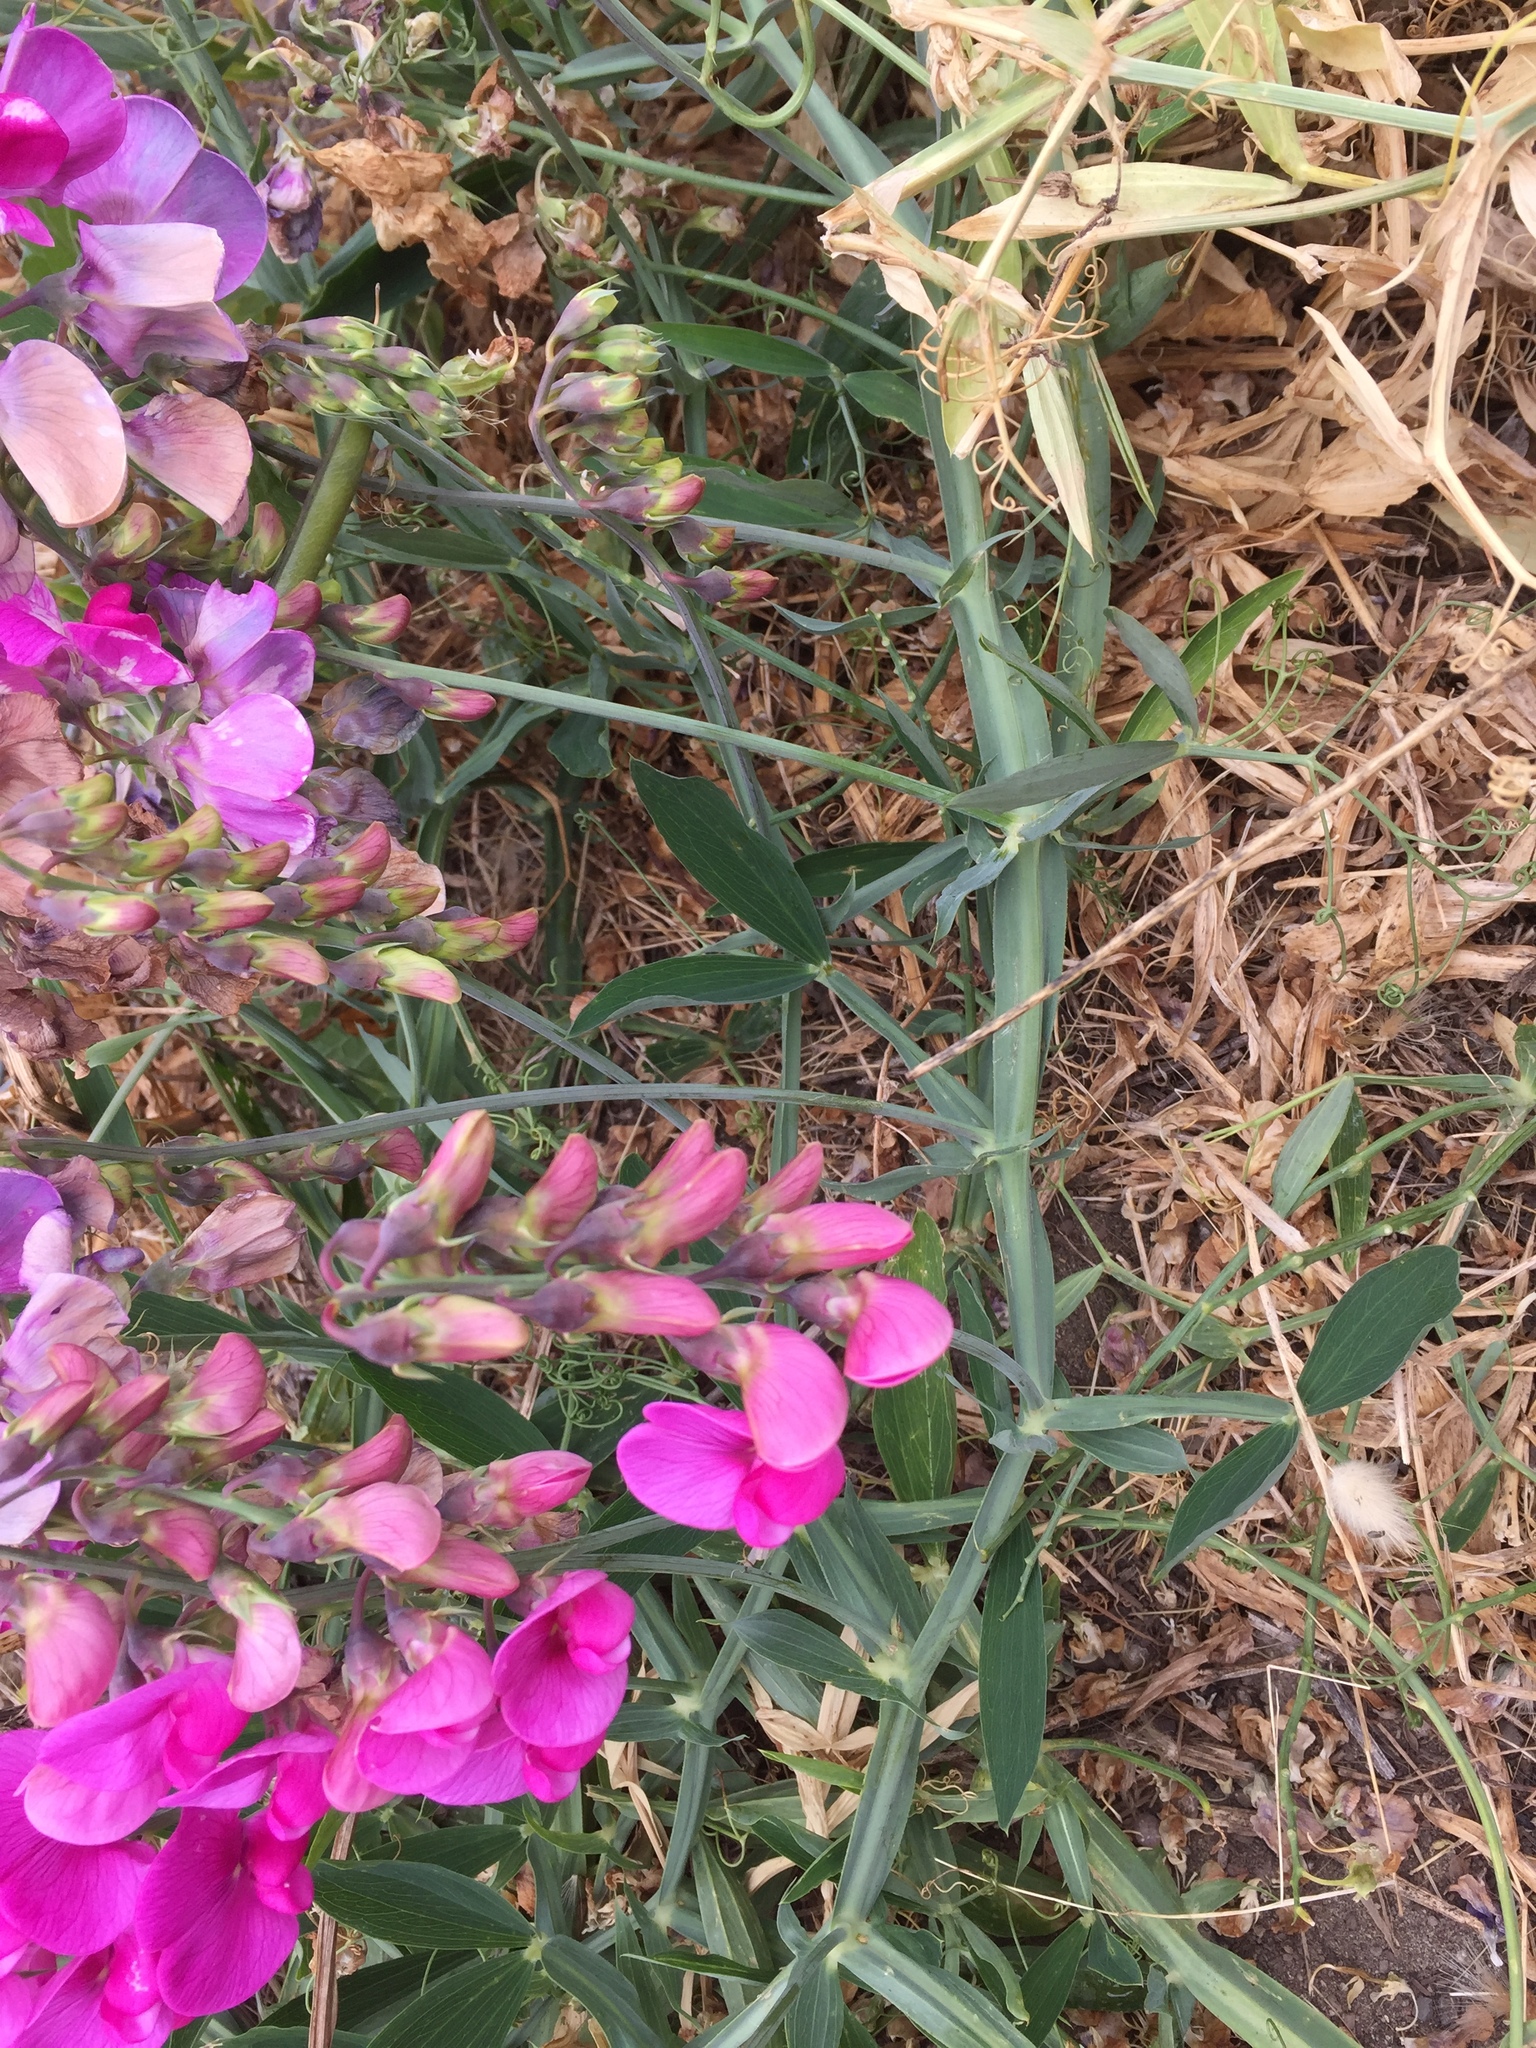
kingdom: Plantae
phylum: Tracheophyta
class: Magnoliopsida
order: Fabales
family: Fabaceae
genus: Lathyrus
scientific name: Lathyrus latifolius
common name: Perennial pea
